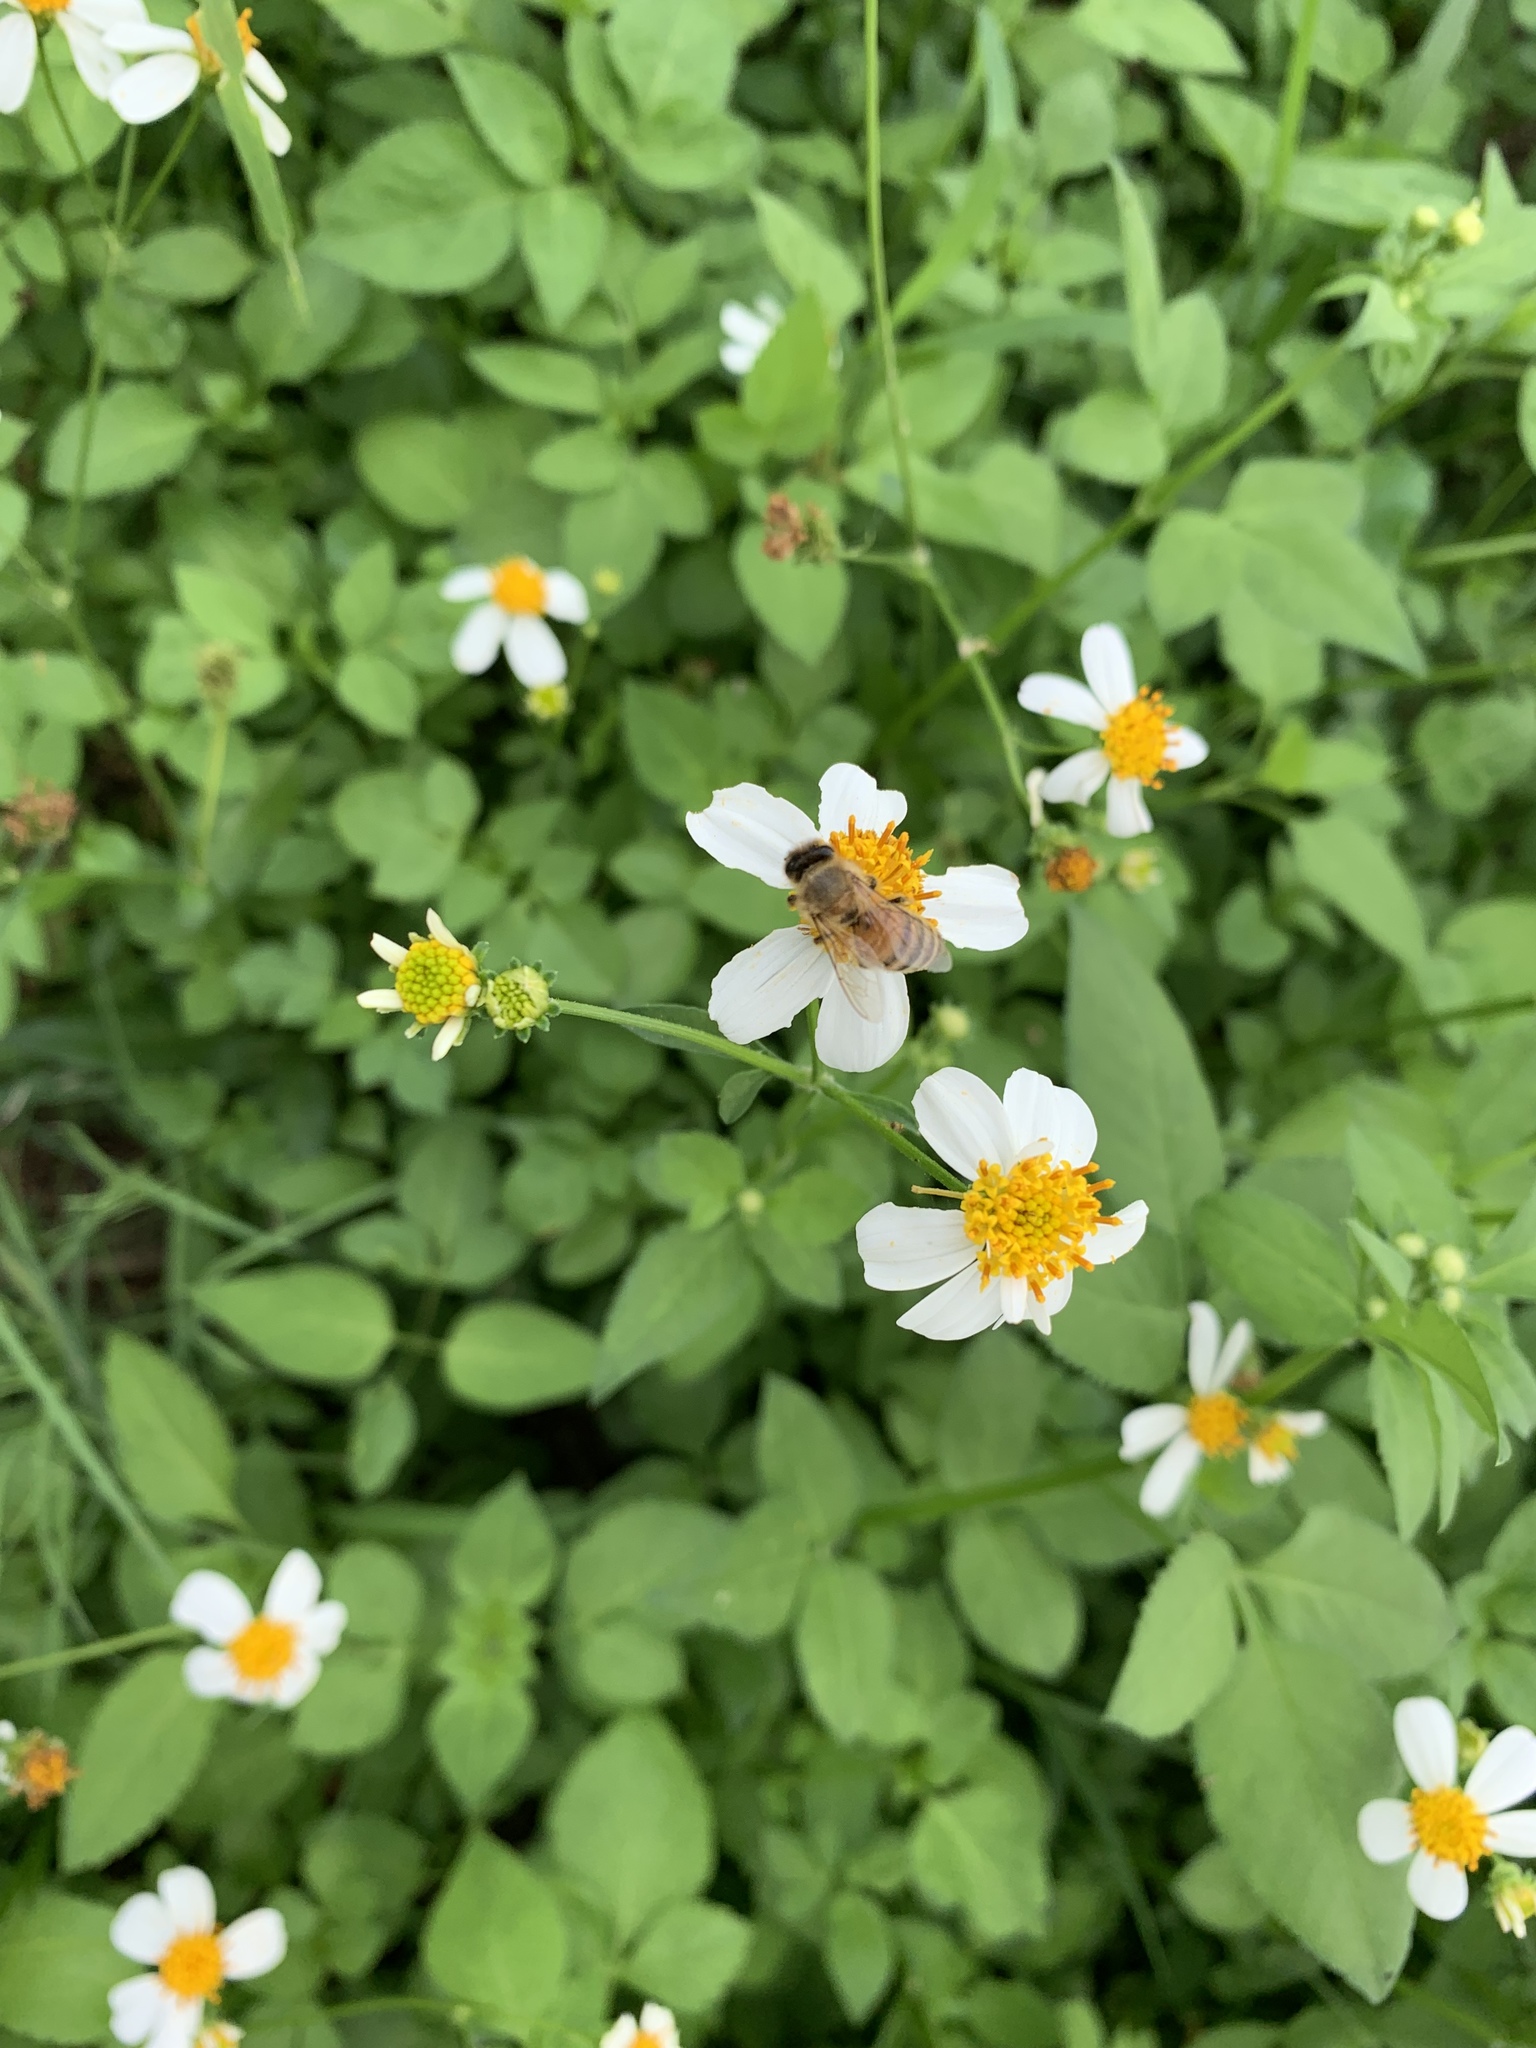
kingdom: Animalia
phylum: Arthropoda
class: Insecta
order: Hymenoptera
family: Apidae
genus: Apis
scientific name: Apis mellifera
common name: Honey bee
